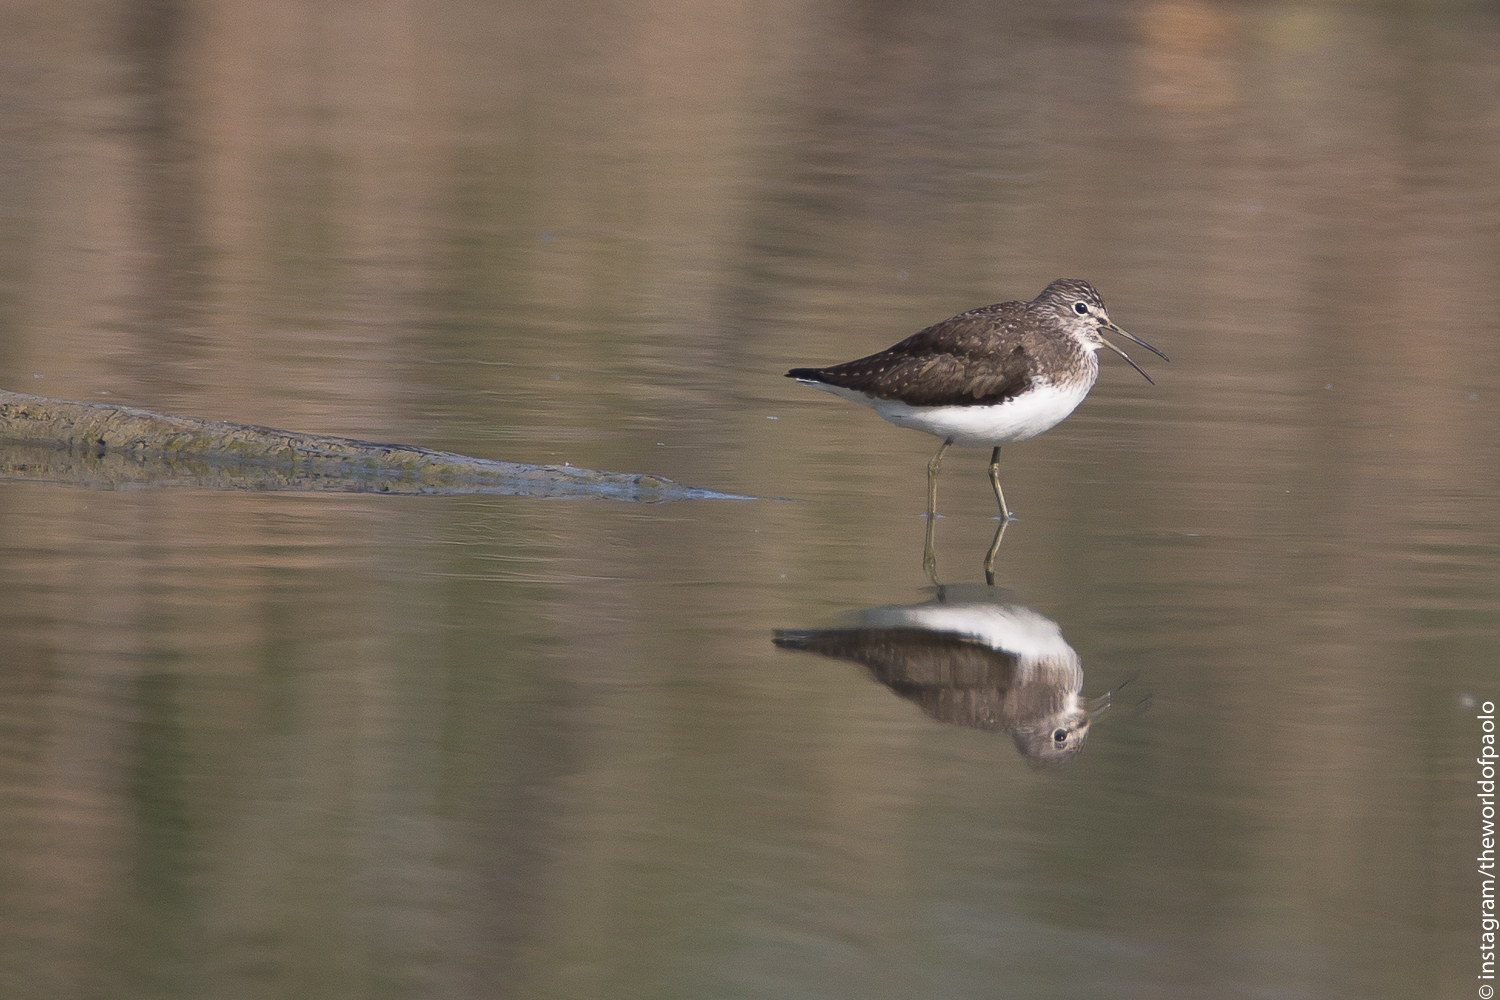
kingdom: Animalia
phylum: Chordata
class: Aves
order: Charadriiformes
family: Scolopacidae
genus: Tringa
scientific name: Tringa ochropus
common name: Green sandpiper
